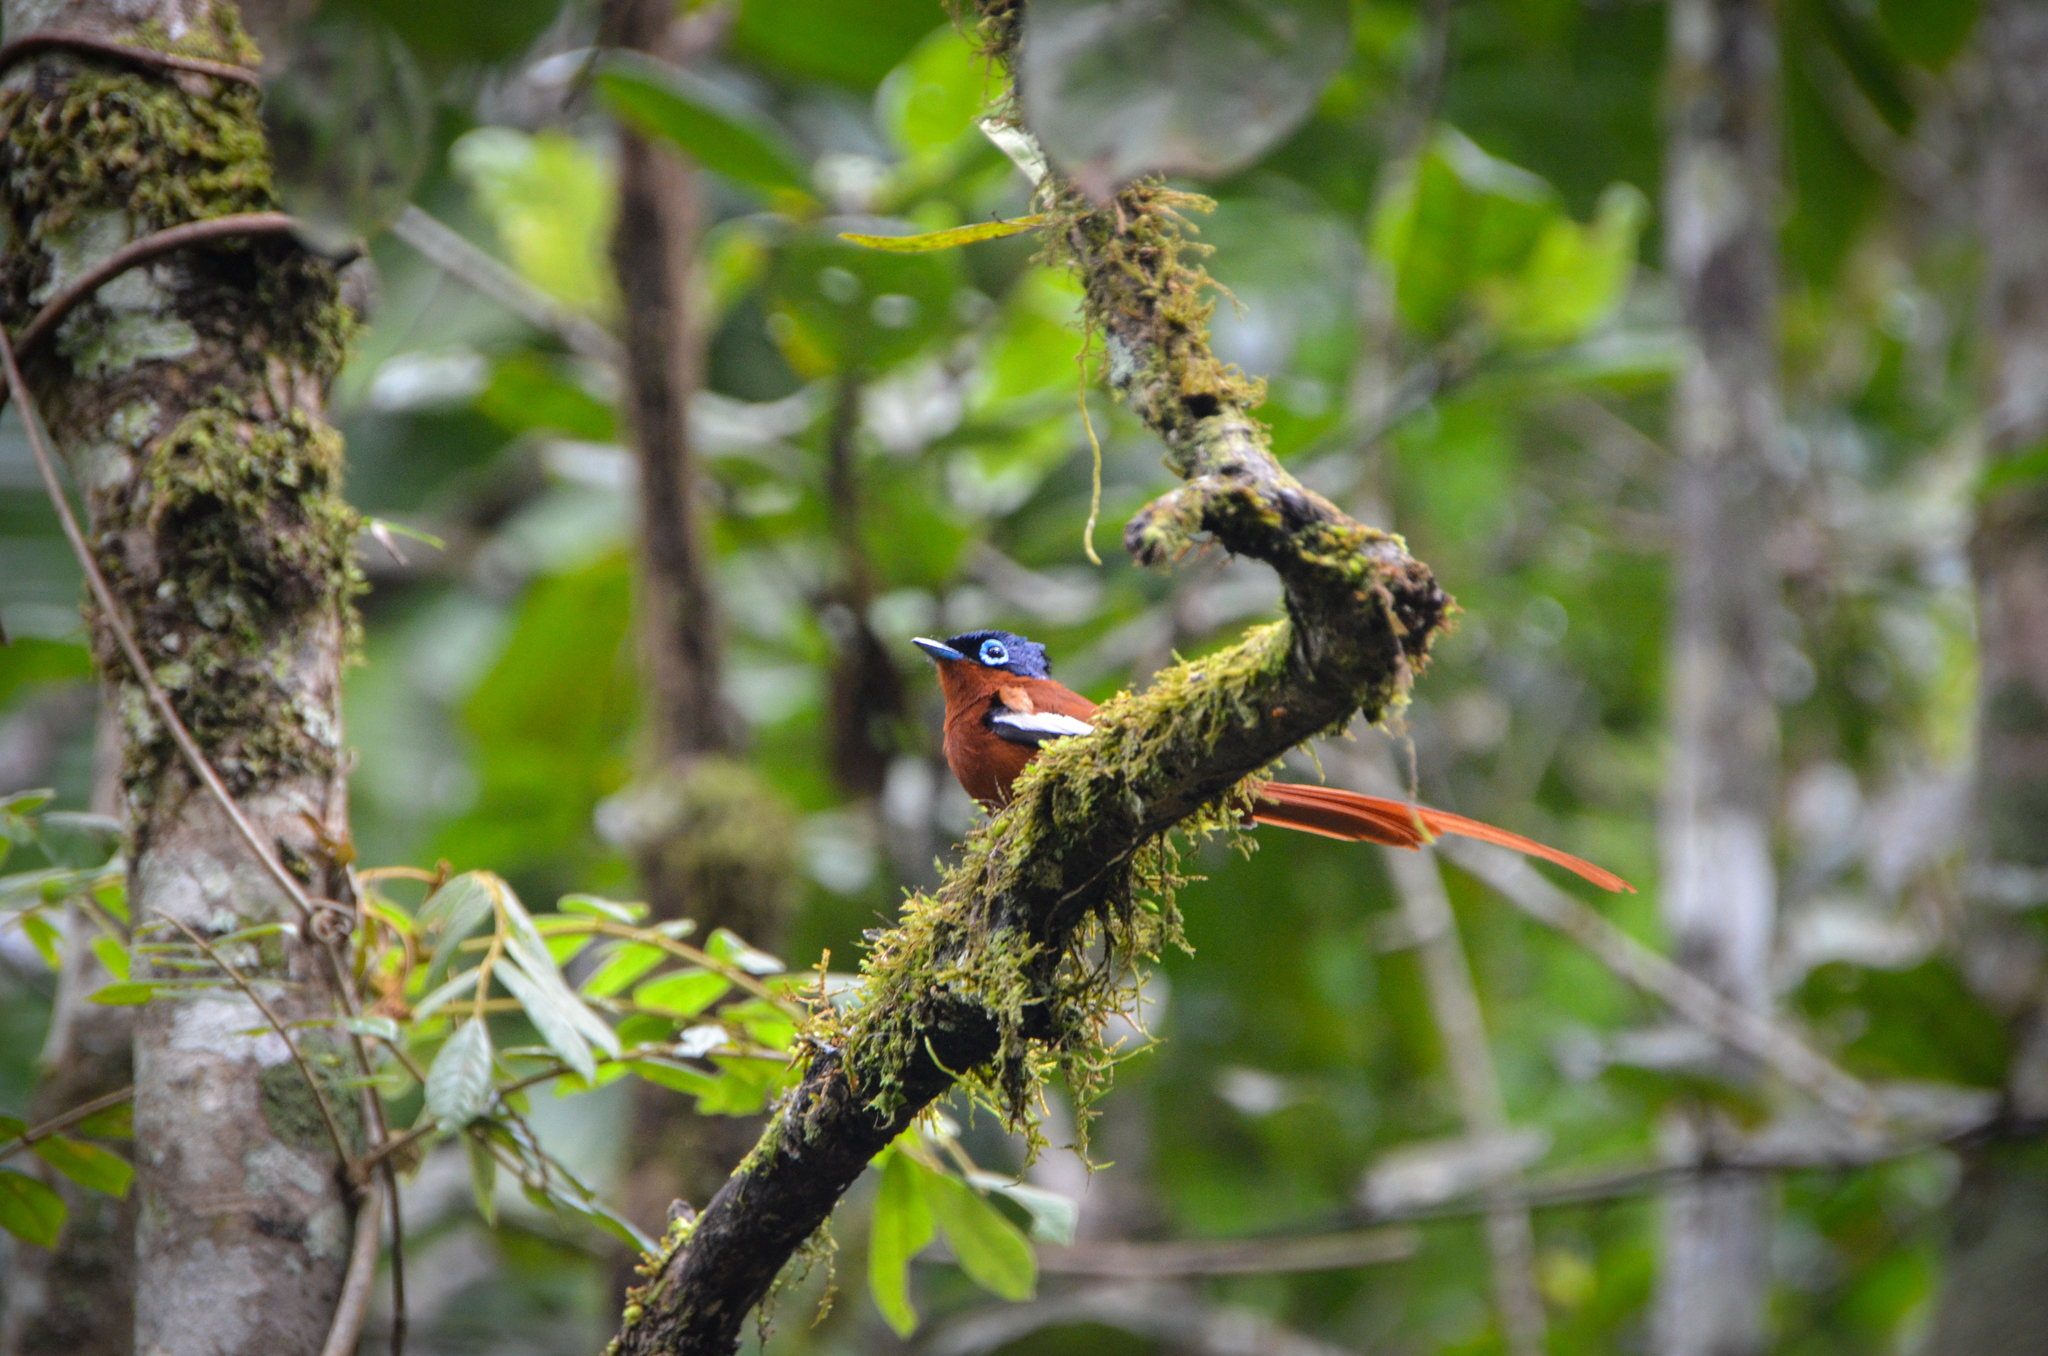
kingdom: Animalia
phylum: Chordata
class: Aves
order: Passeriformes
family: Monarchidae
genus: Terpsiphone
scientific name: Terpsiphone mutata
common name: Malagasy paradise flycatcher
